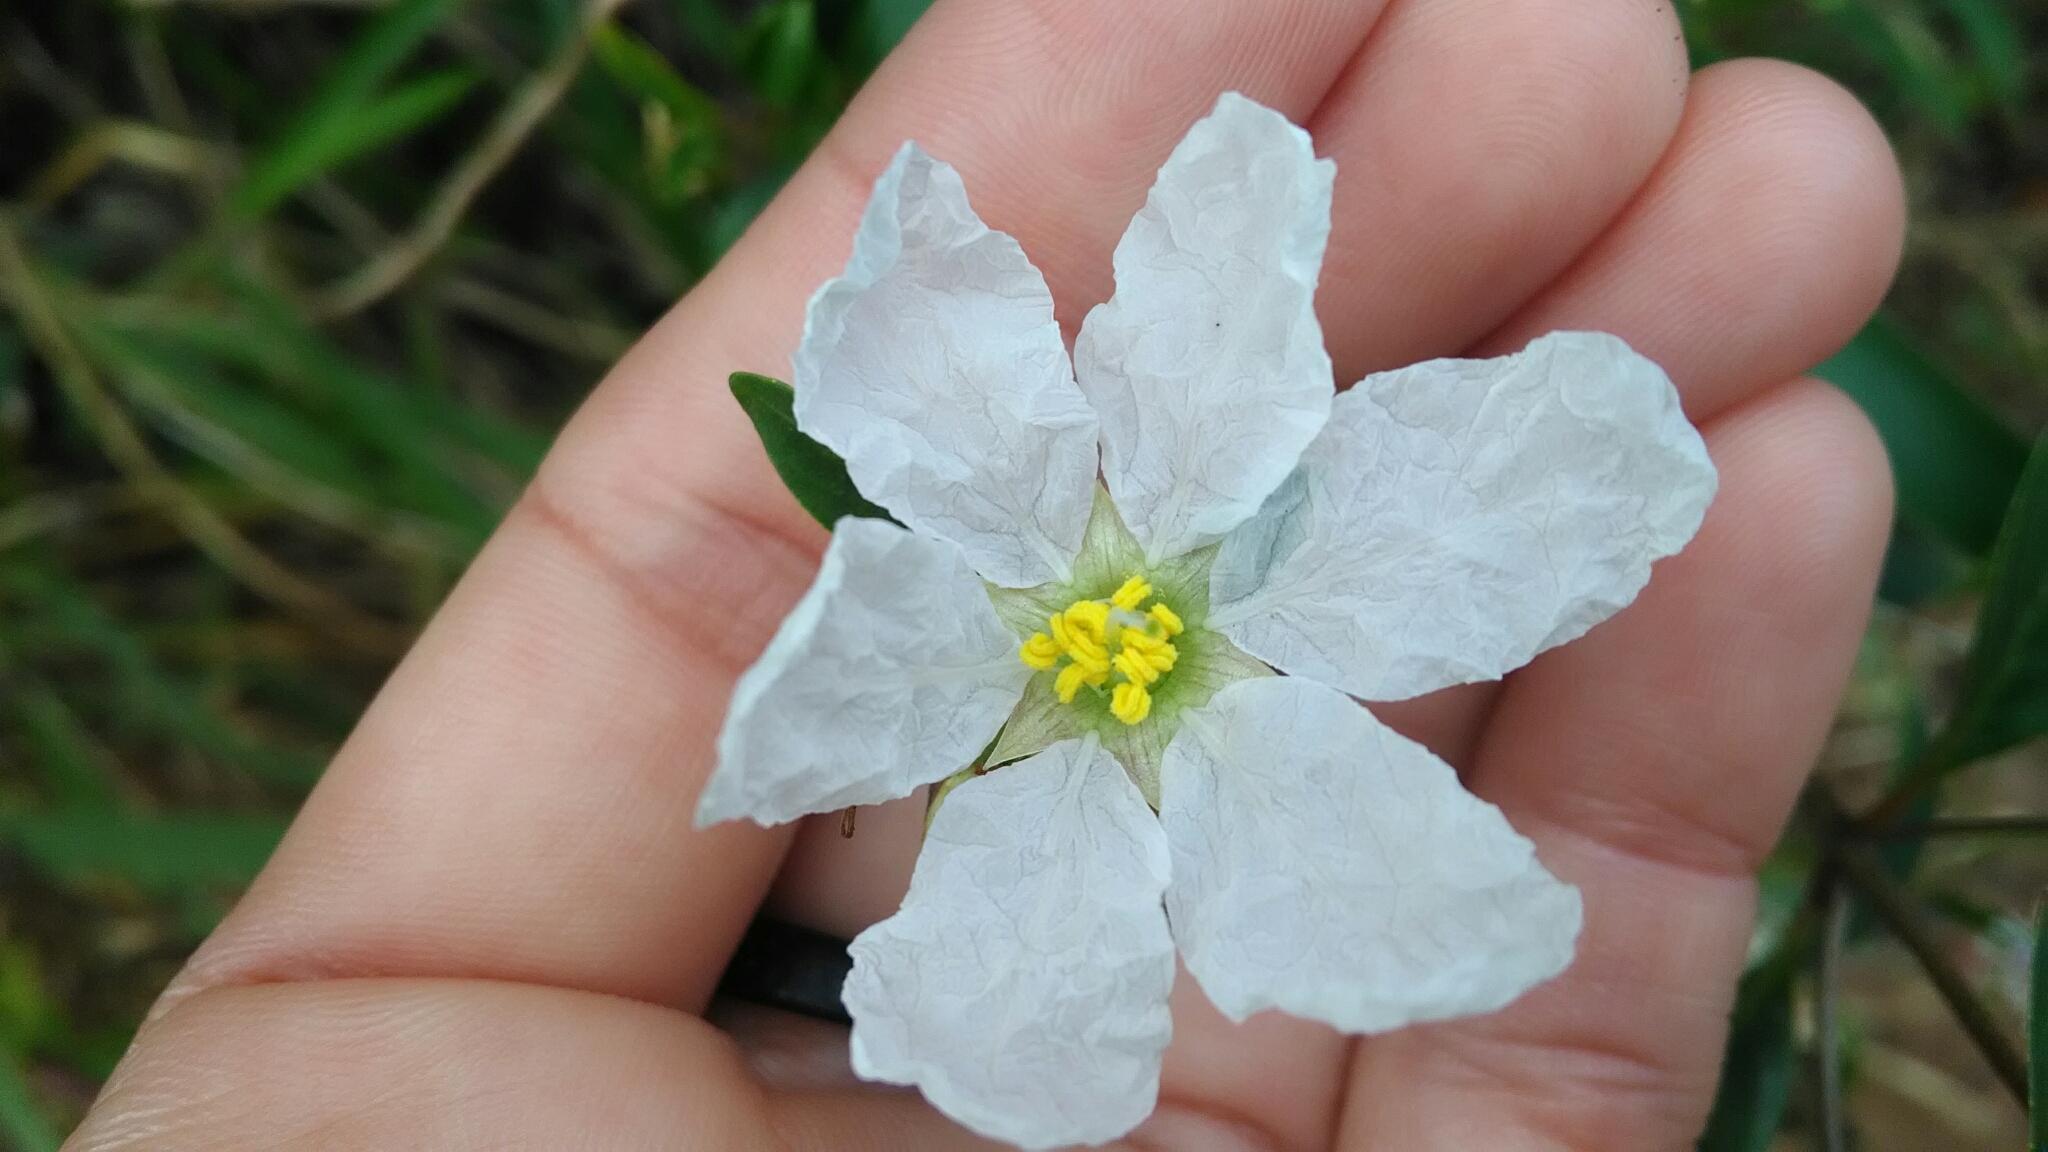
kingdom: Plantae
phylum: Tracheophyta
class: Magnoliopsida
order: Myrtales
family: Lythraceae
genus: Diplusodon
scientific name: Diplusodon virgatus
